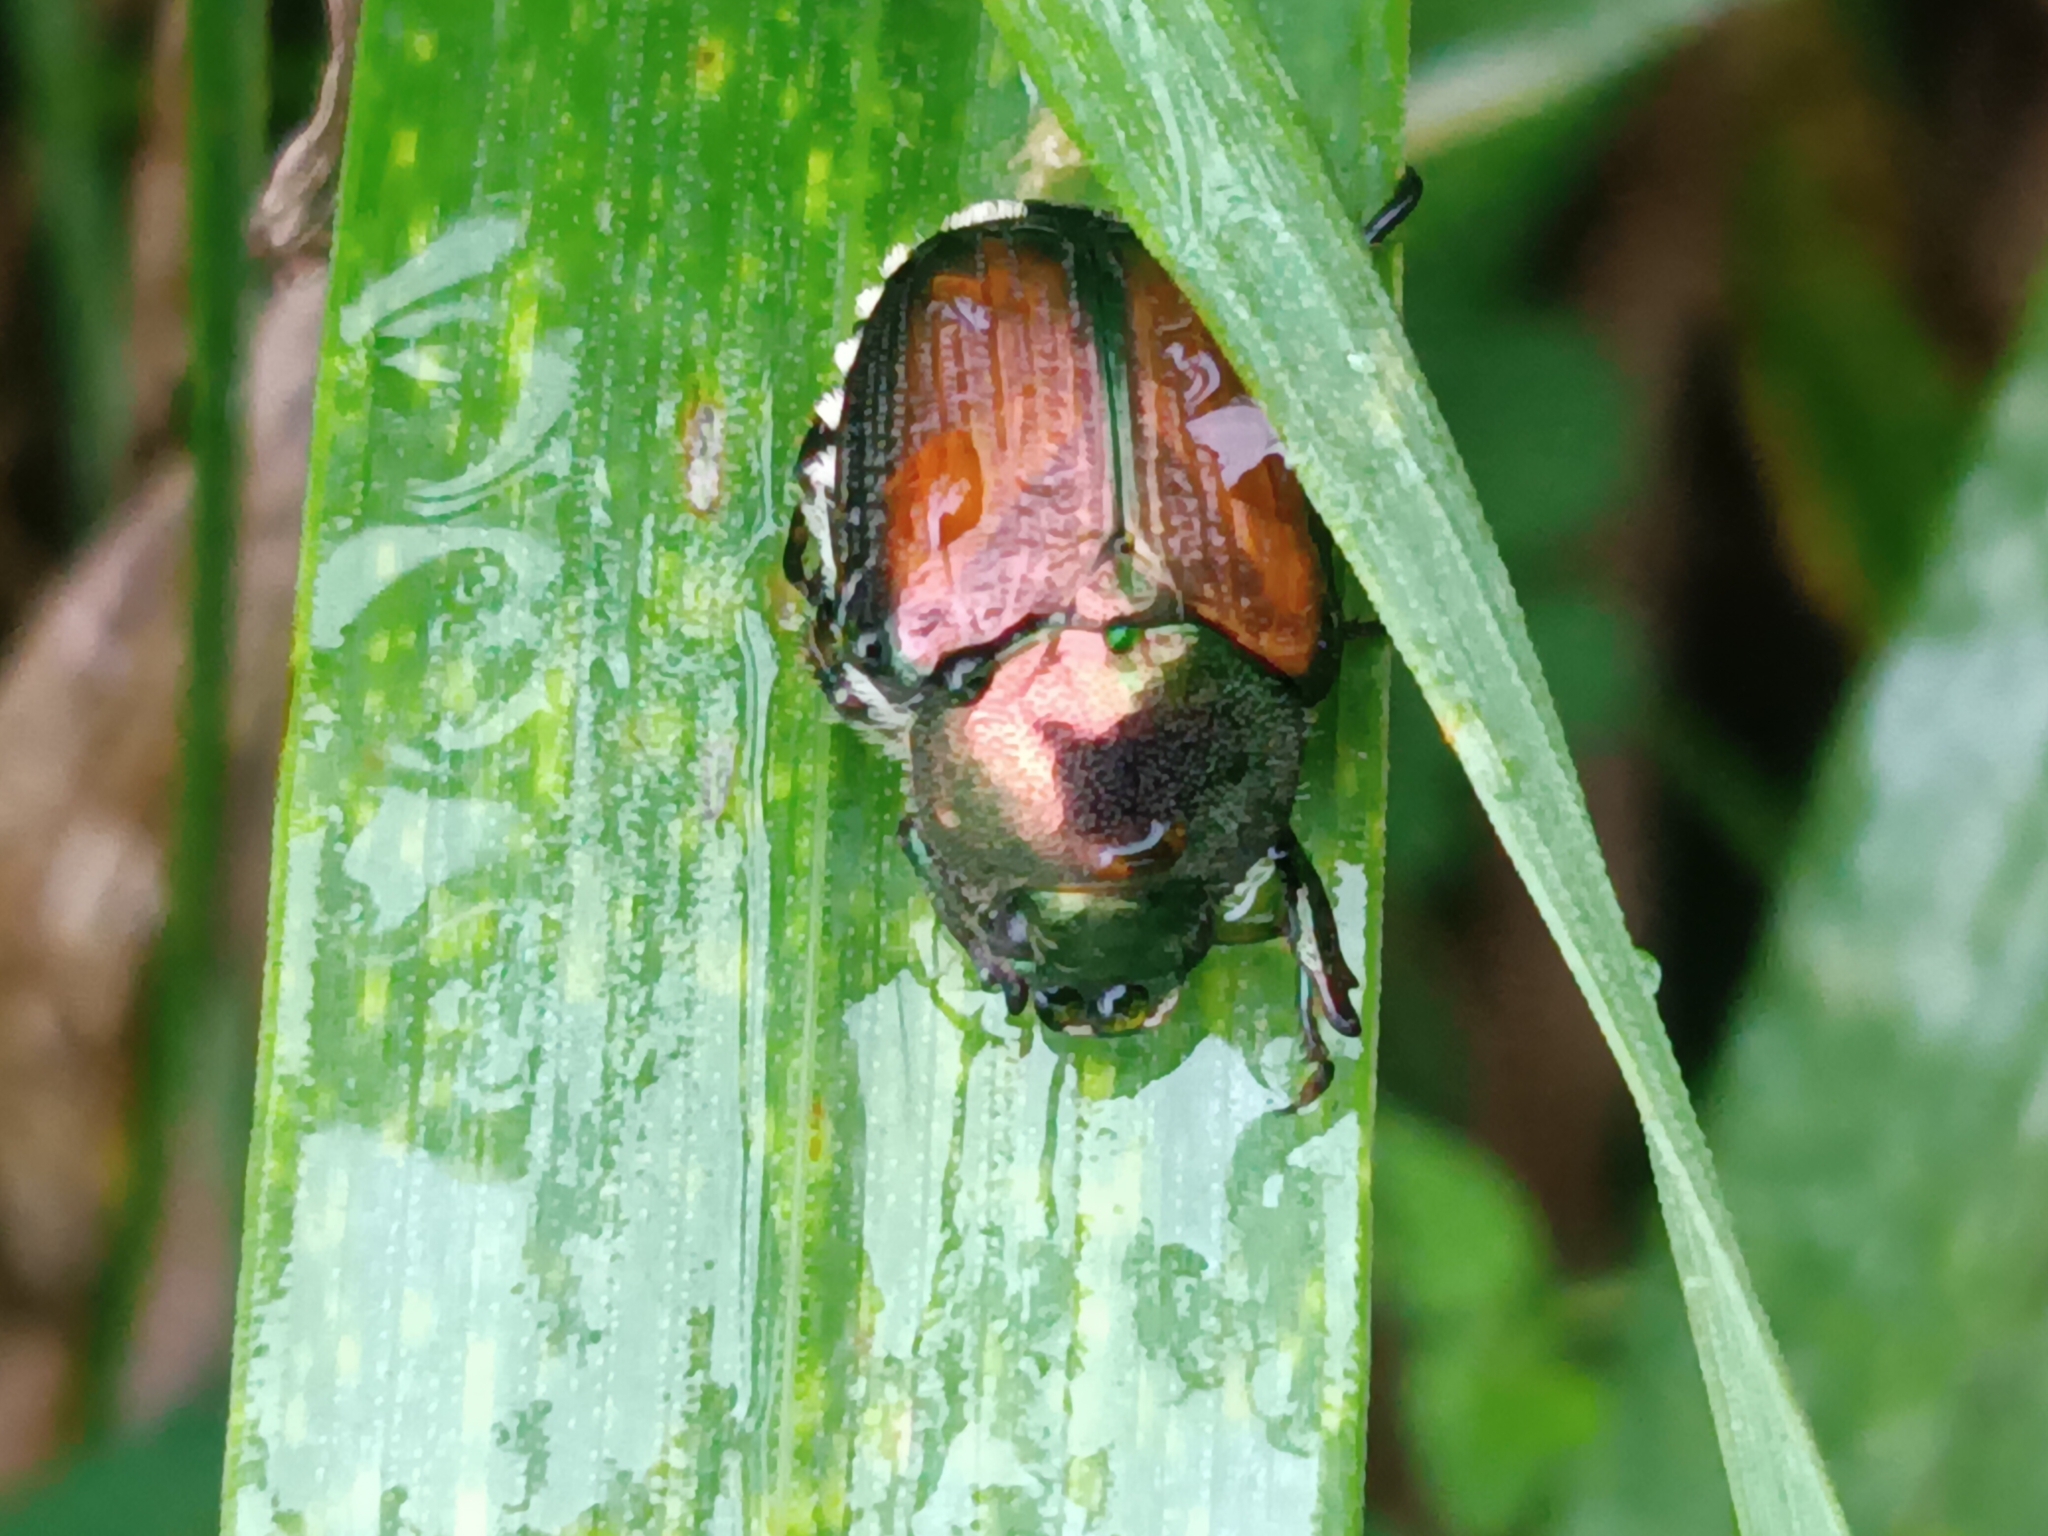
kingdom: Animalia
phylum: Arthropoda
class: Insecta
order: Coleoptera
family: Scarabaeidae
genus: Popillia
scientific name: Popillia japonica
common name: Japanese beetle
